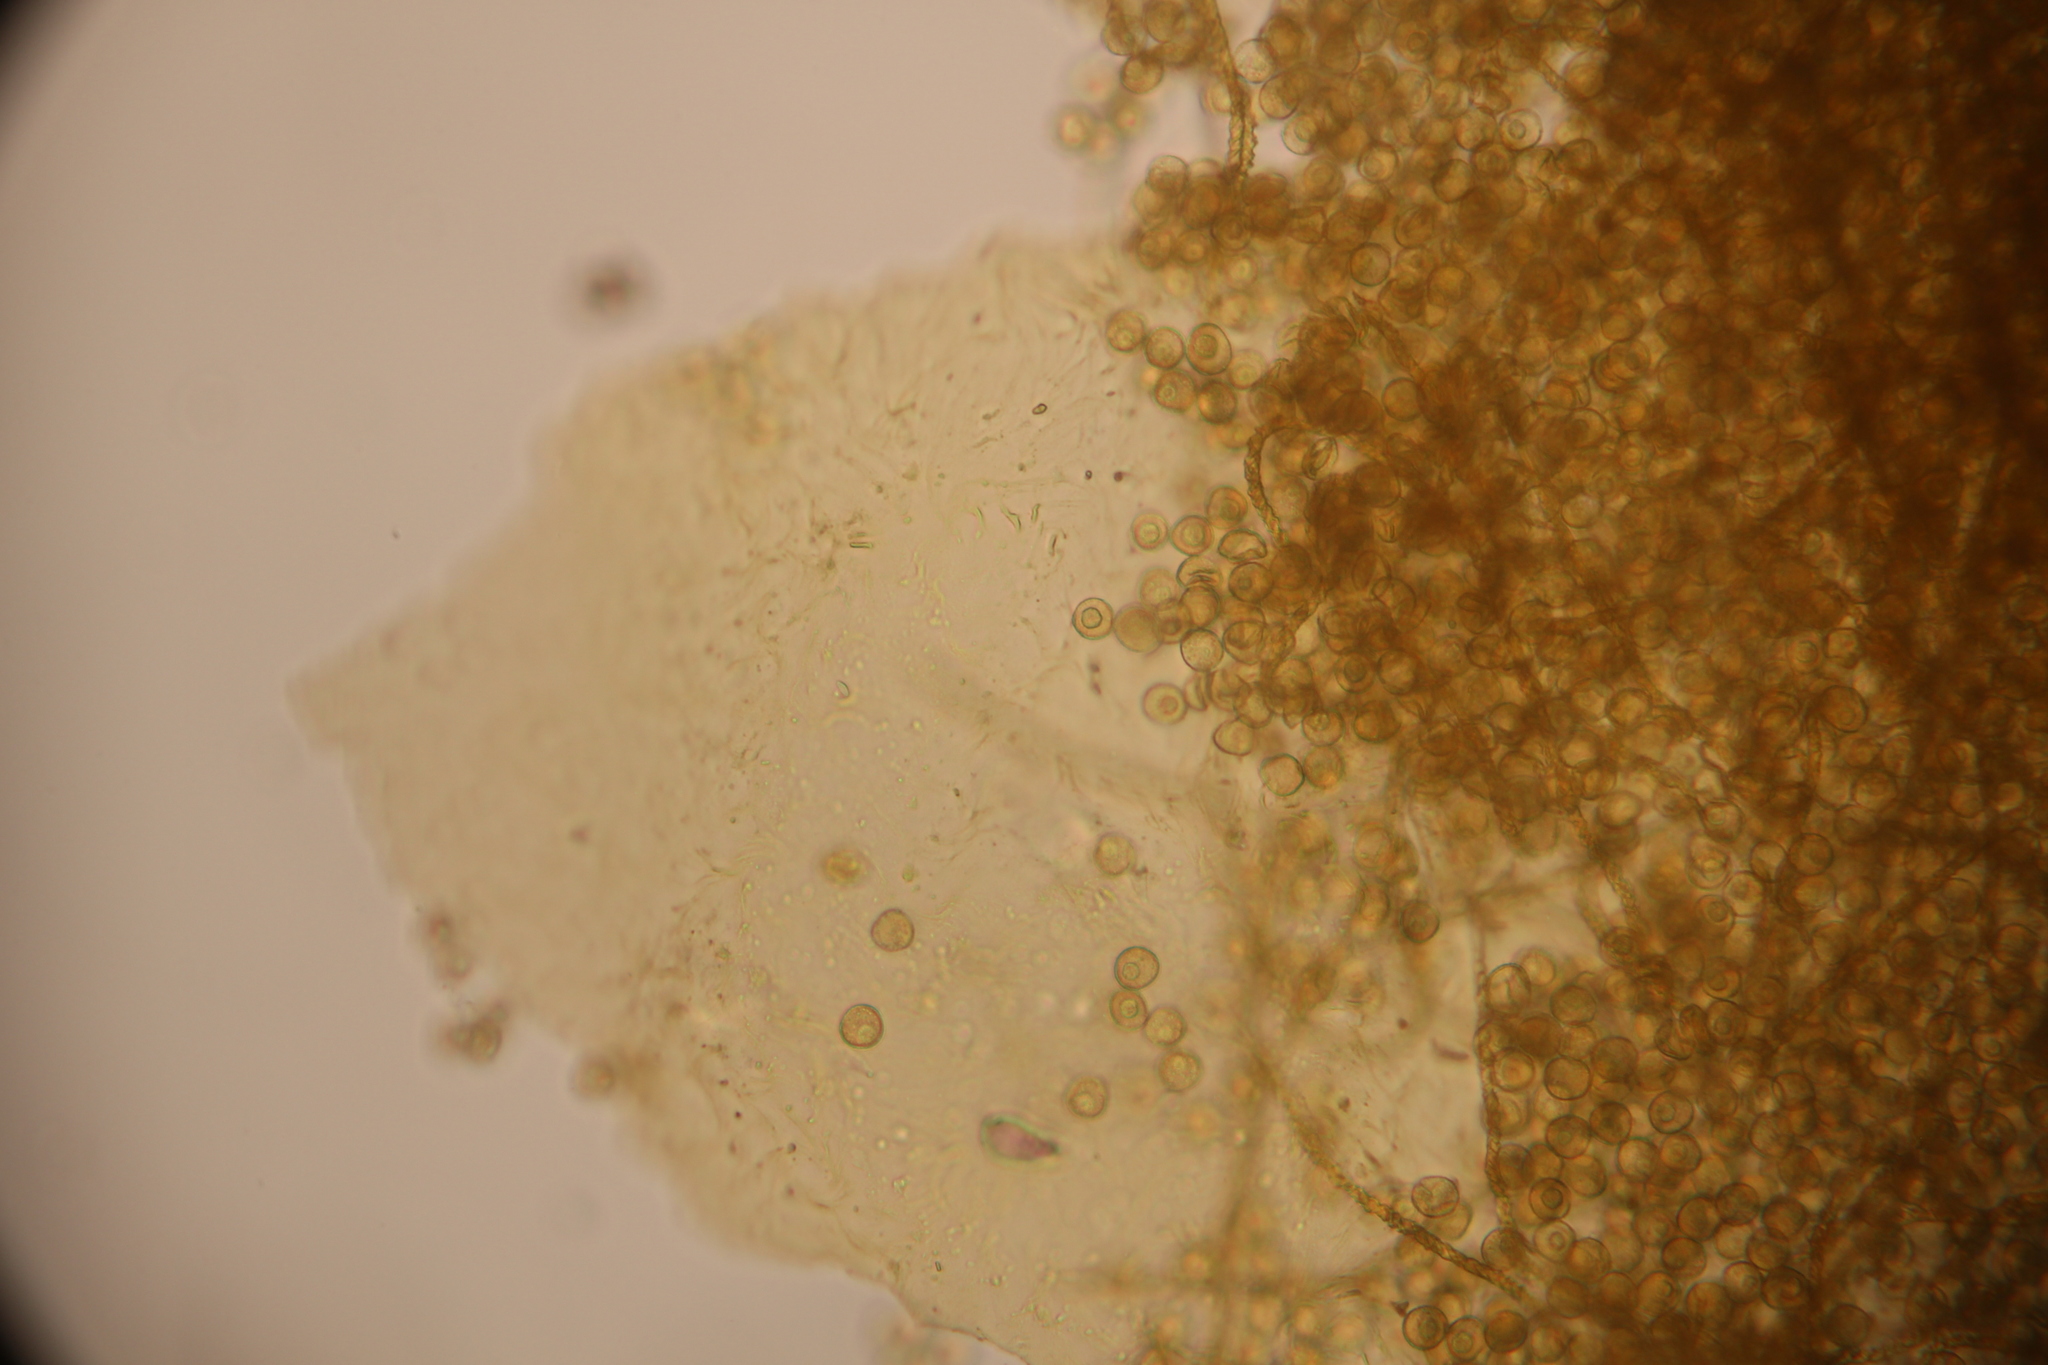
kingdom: Protozoa
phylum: Mycetozoa
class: Myxomycetes
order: Trichiales
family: Trichiaceae
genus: Trichia
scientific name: Trichia varia
